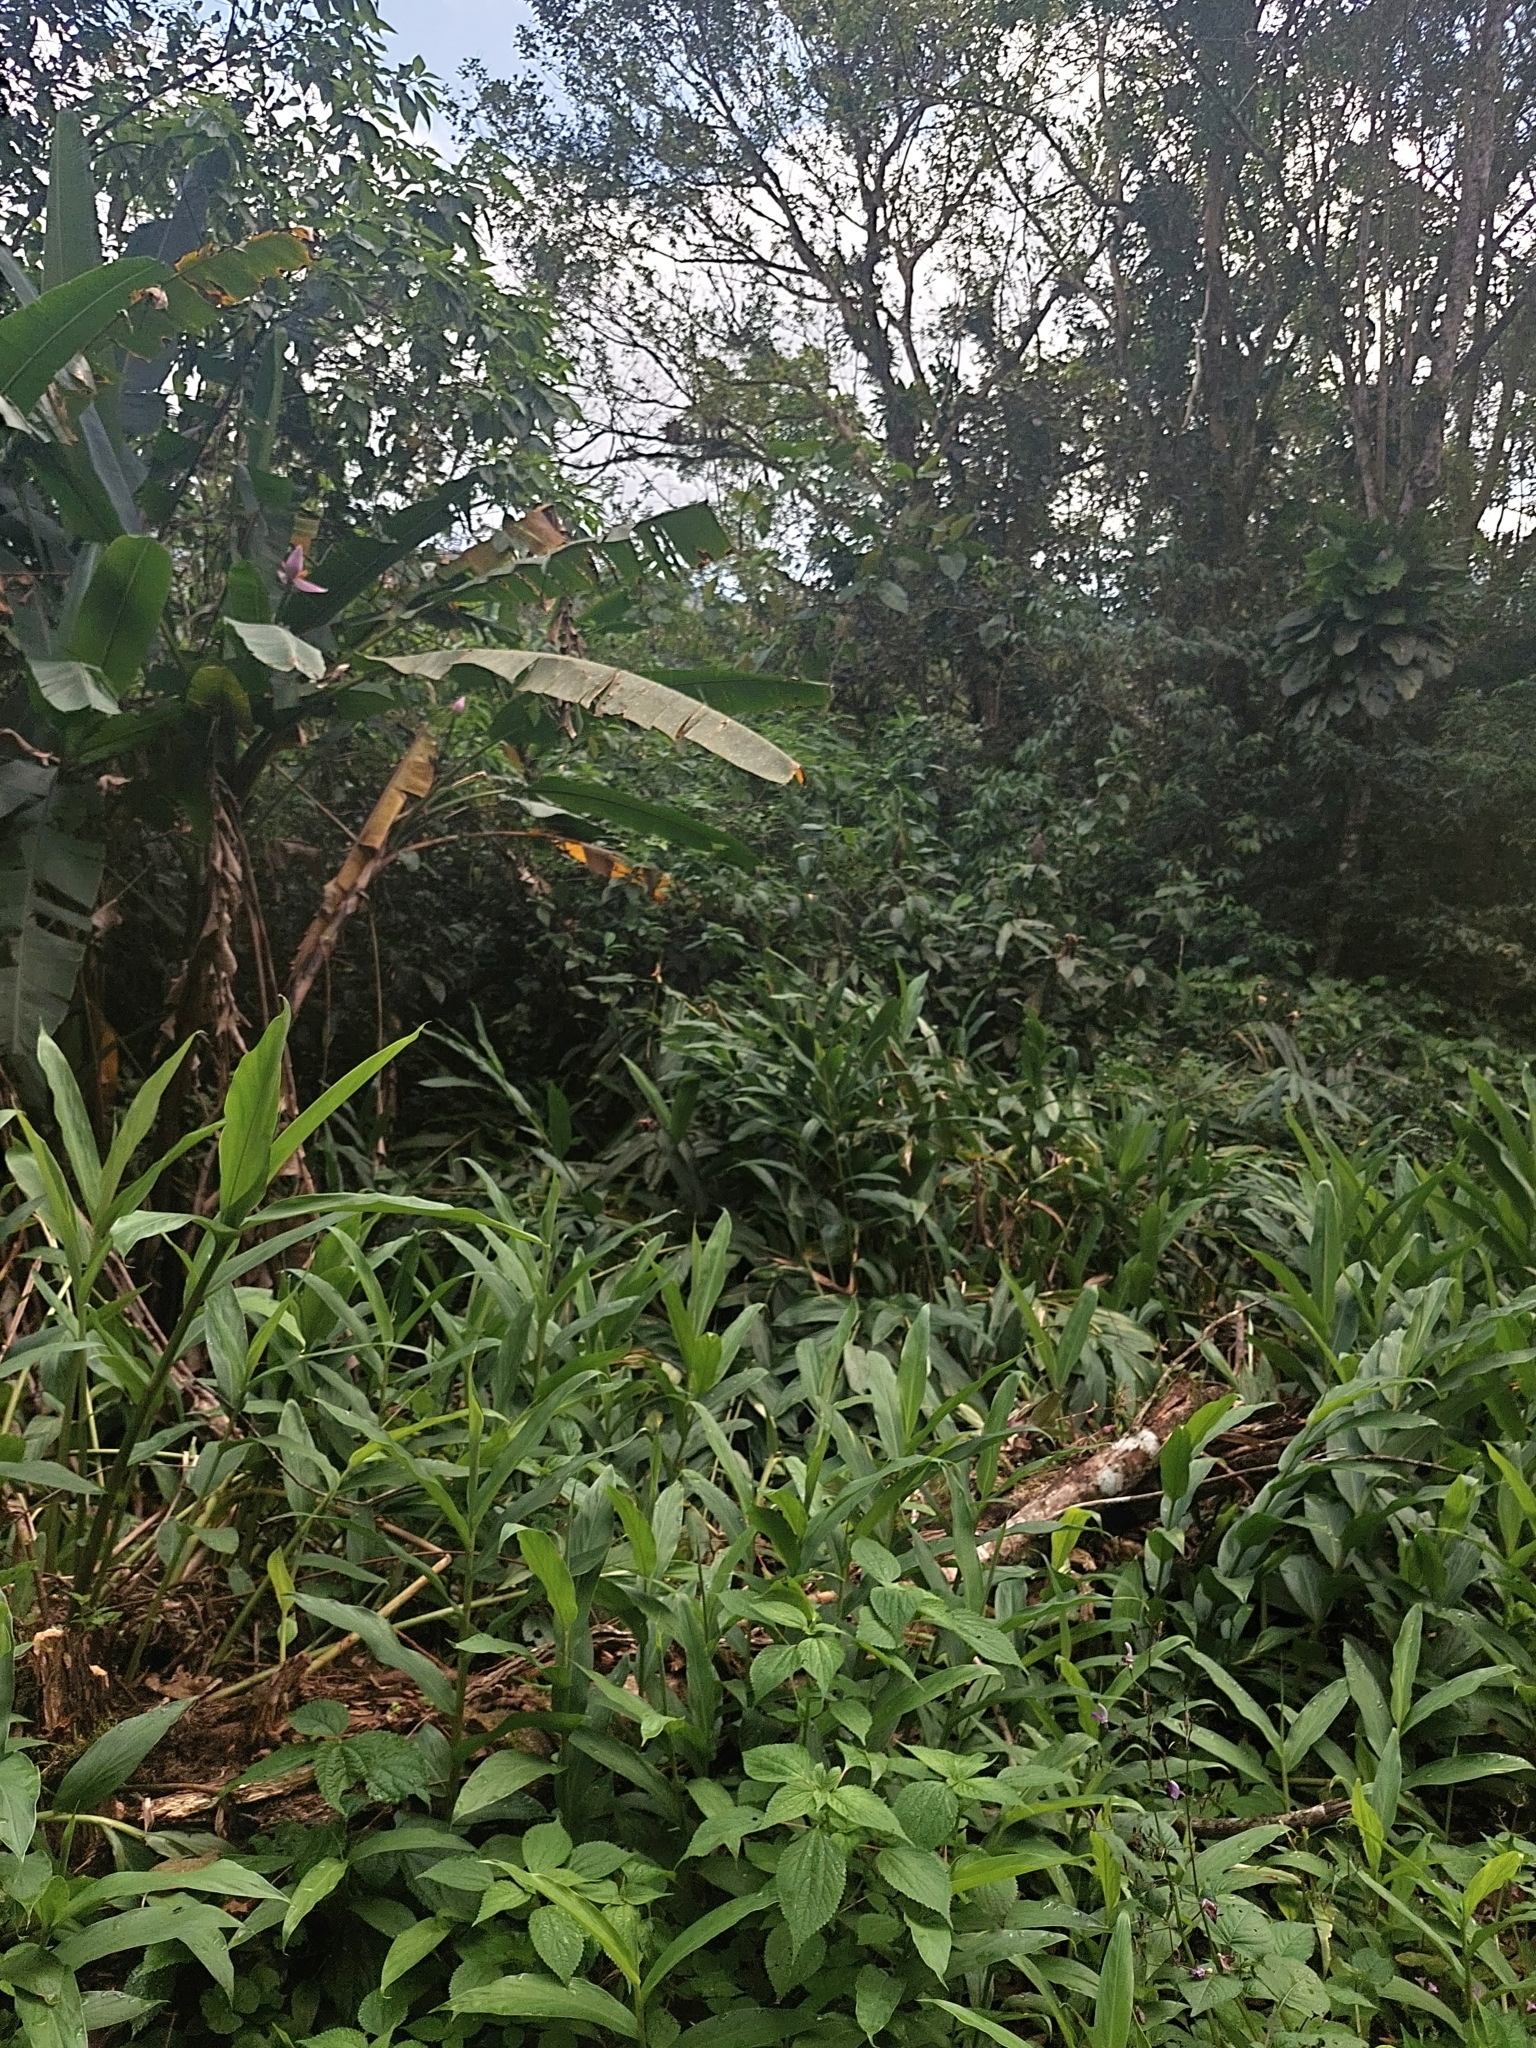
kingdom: Plantae
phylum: Tracheophyta
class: Liliopsida
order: Zingiberales
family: Zingiberaceae
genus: Hedychium
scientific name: Hedychium coronarium
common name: White garland-lily
